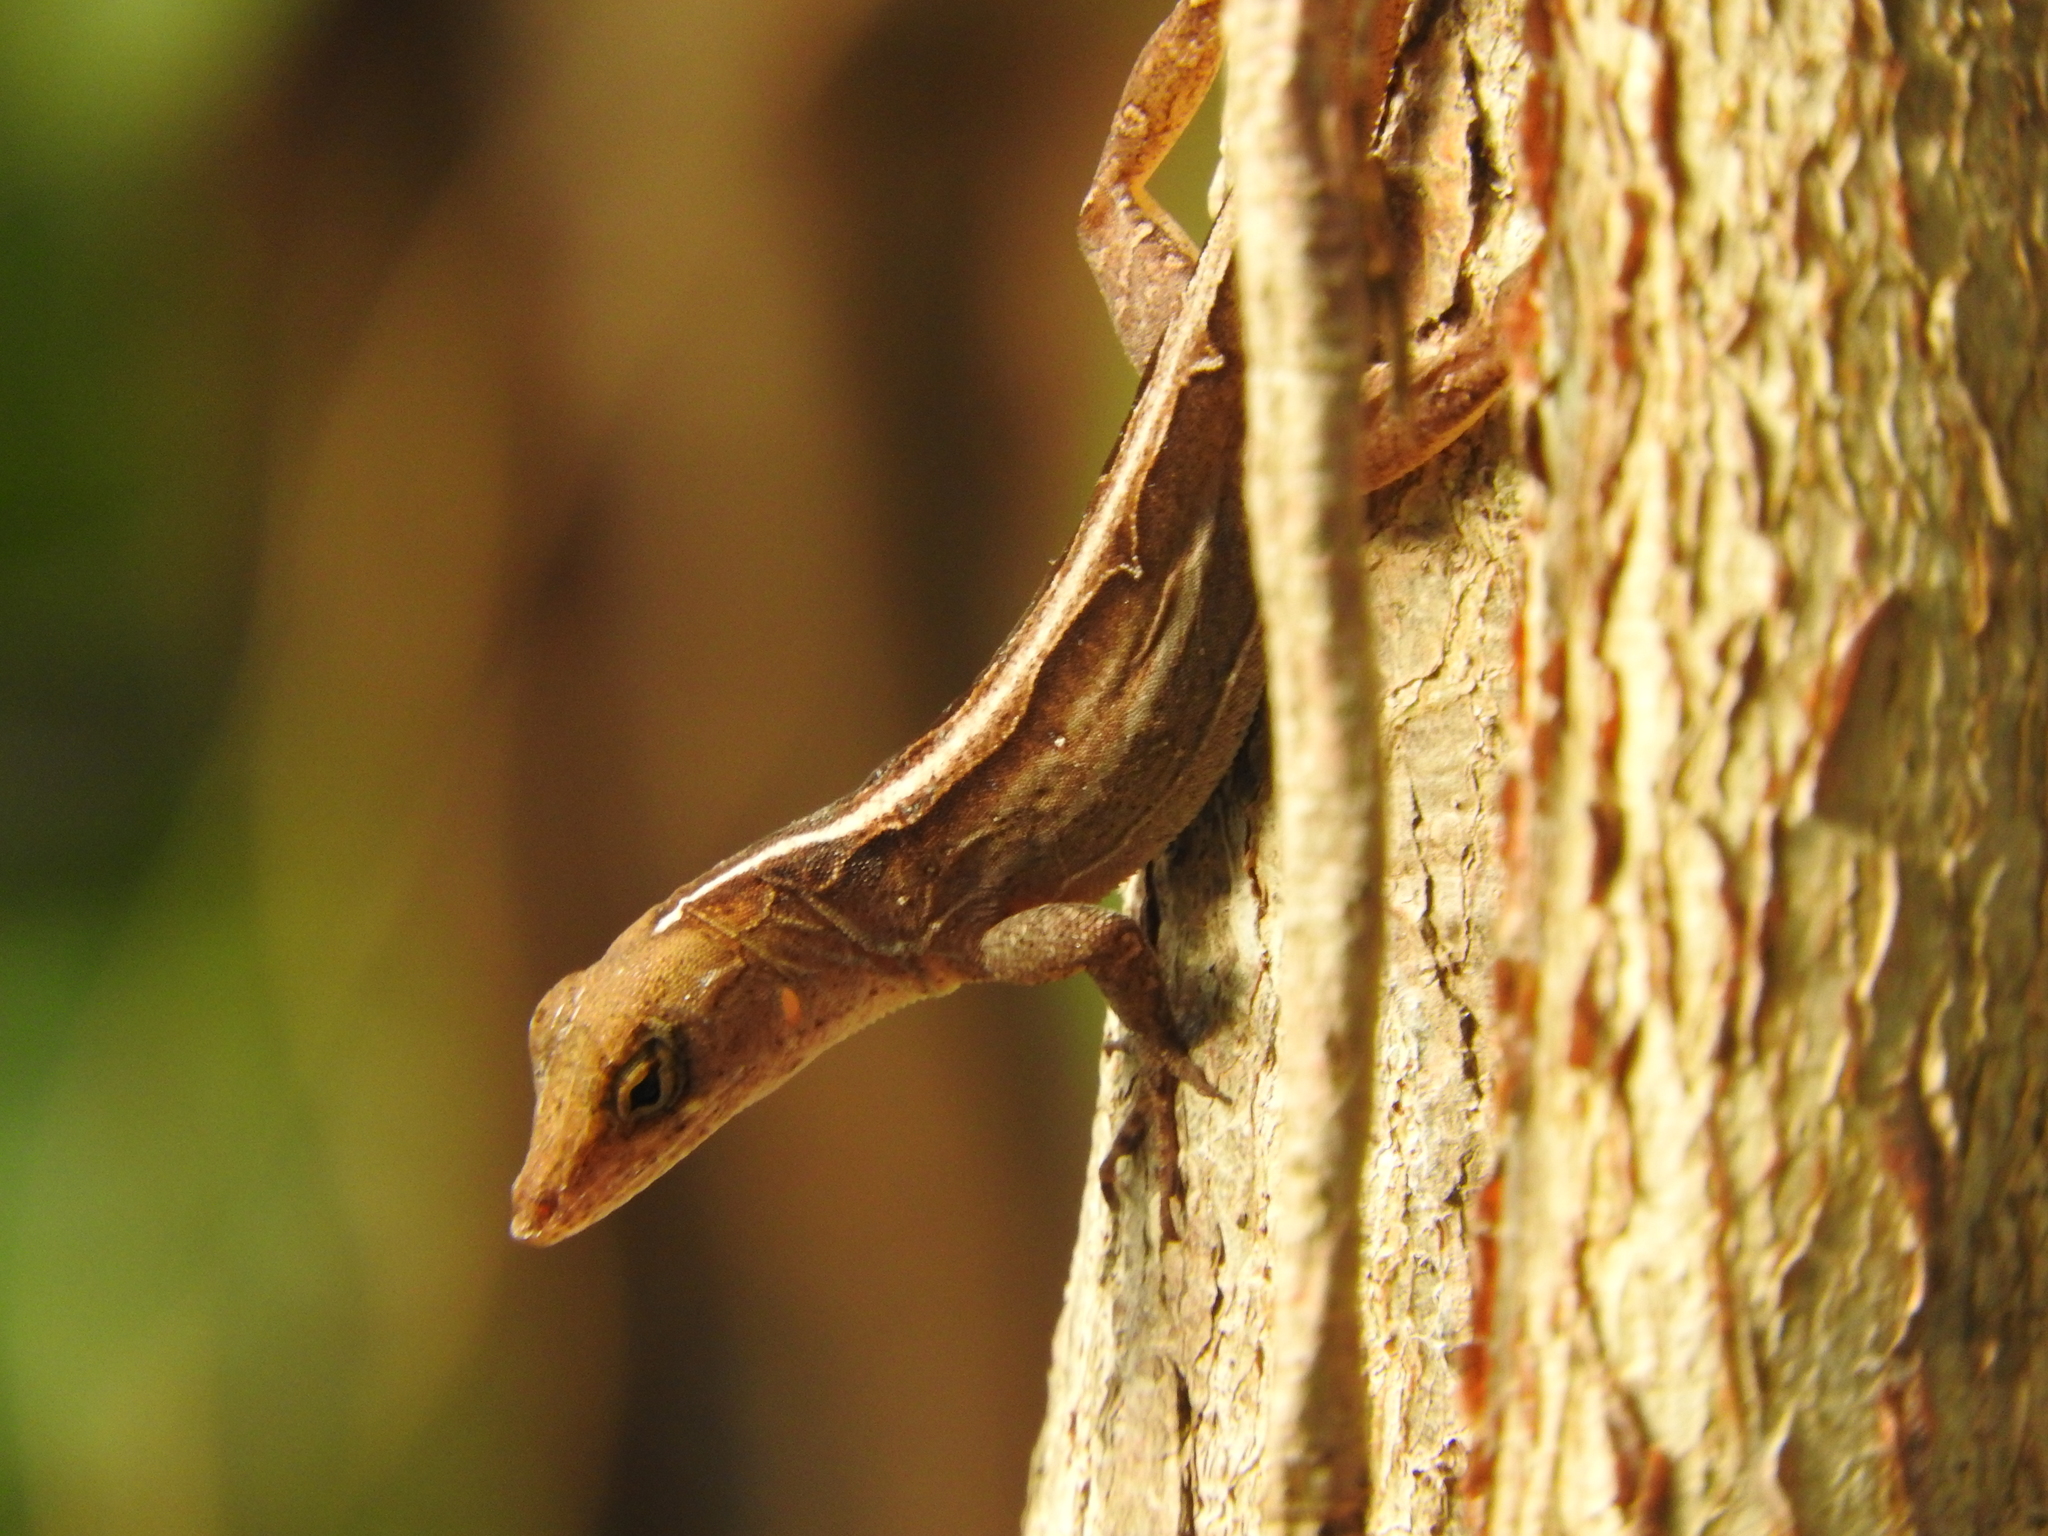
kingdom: Animalia
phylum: Chordata
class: Squamata
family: Dactyloidae
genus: Anolis
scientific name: Anolis sagrei
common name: Brown anole
